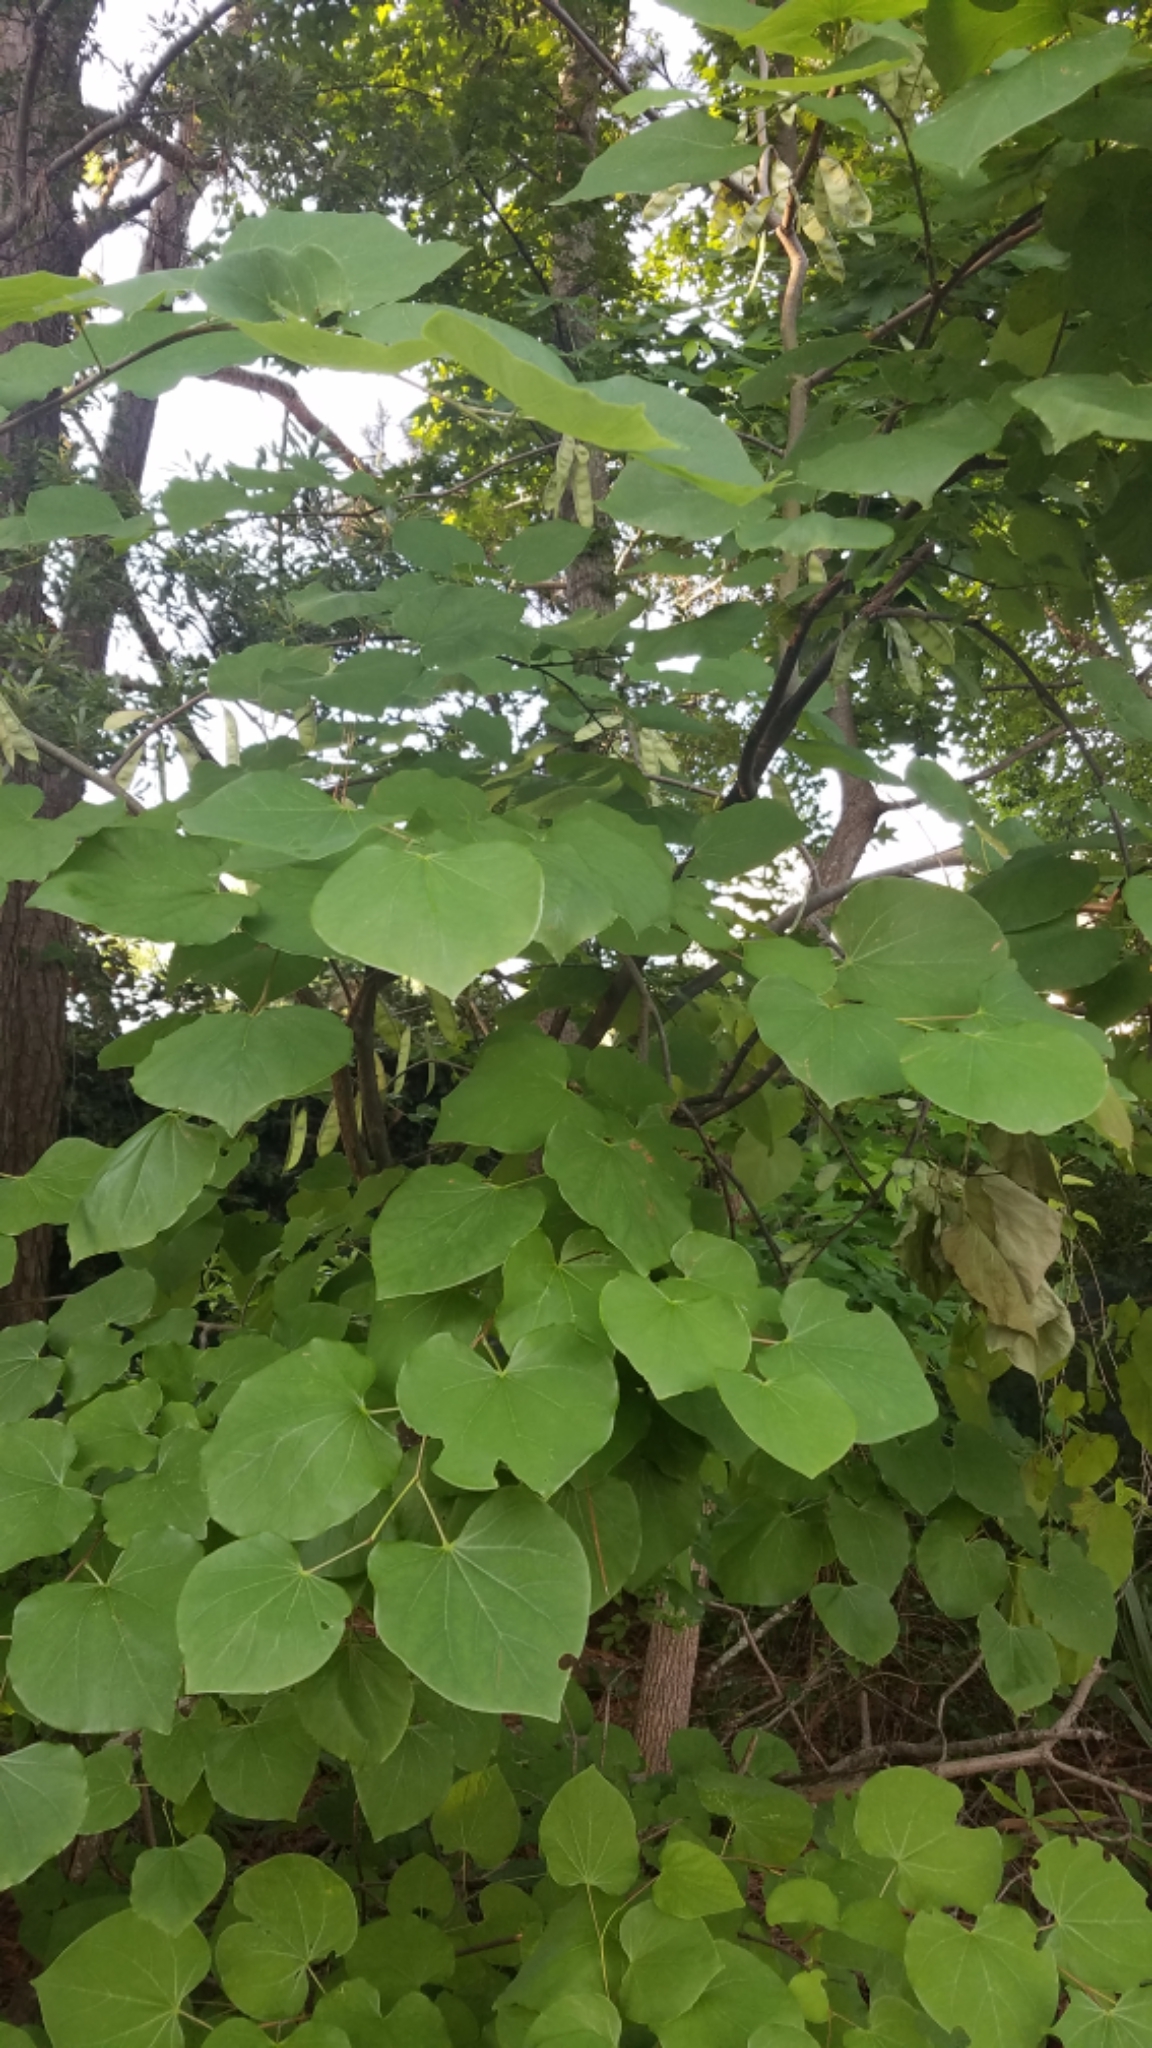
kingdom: Plantae
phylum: Tracheophyta
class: Magnoliopsida
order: Fabales
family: Fabaceae
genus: Cercis
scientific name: Cercis canadensis
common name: Eastern redbud
